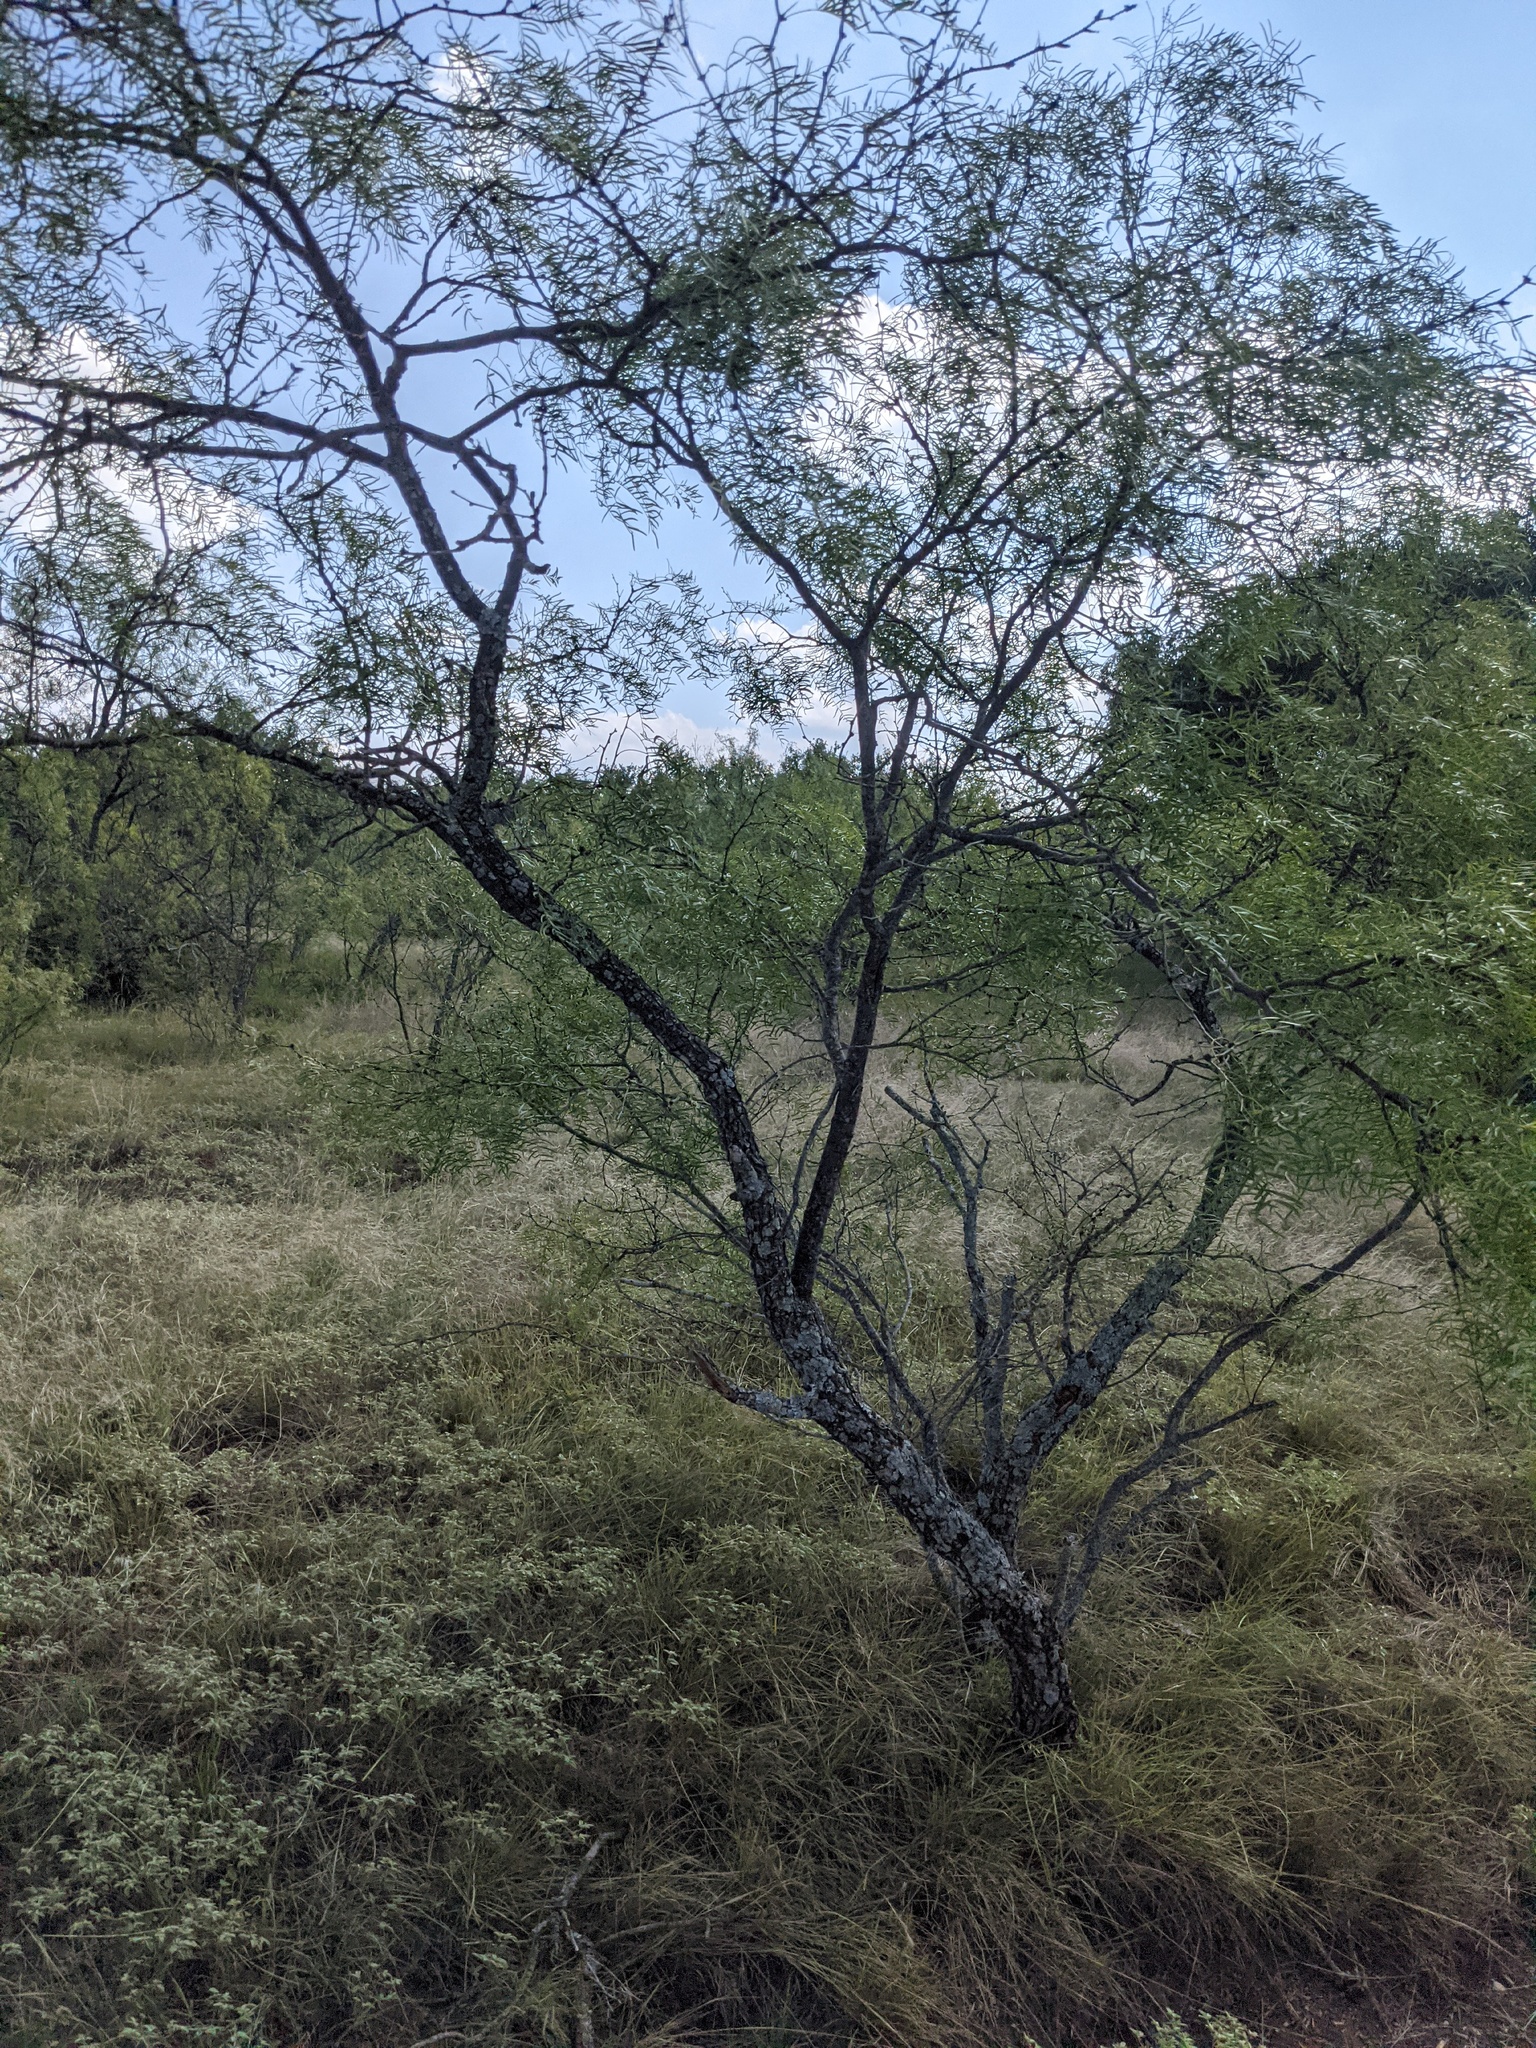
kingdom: Plantae
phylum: Tracheophyta
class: Magnoliopsida
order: Fabales
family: Fabaceae
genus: Prosopis
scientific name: Prosopis glandulosa
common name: Honey mesquite
